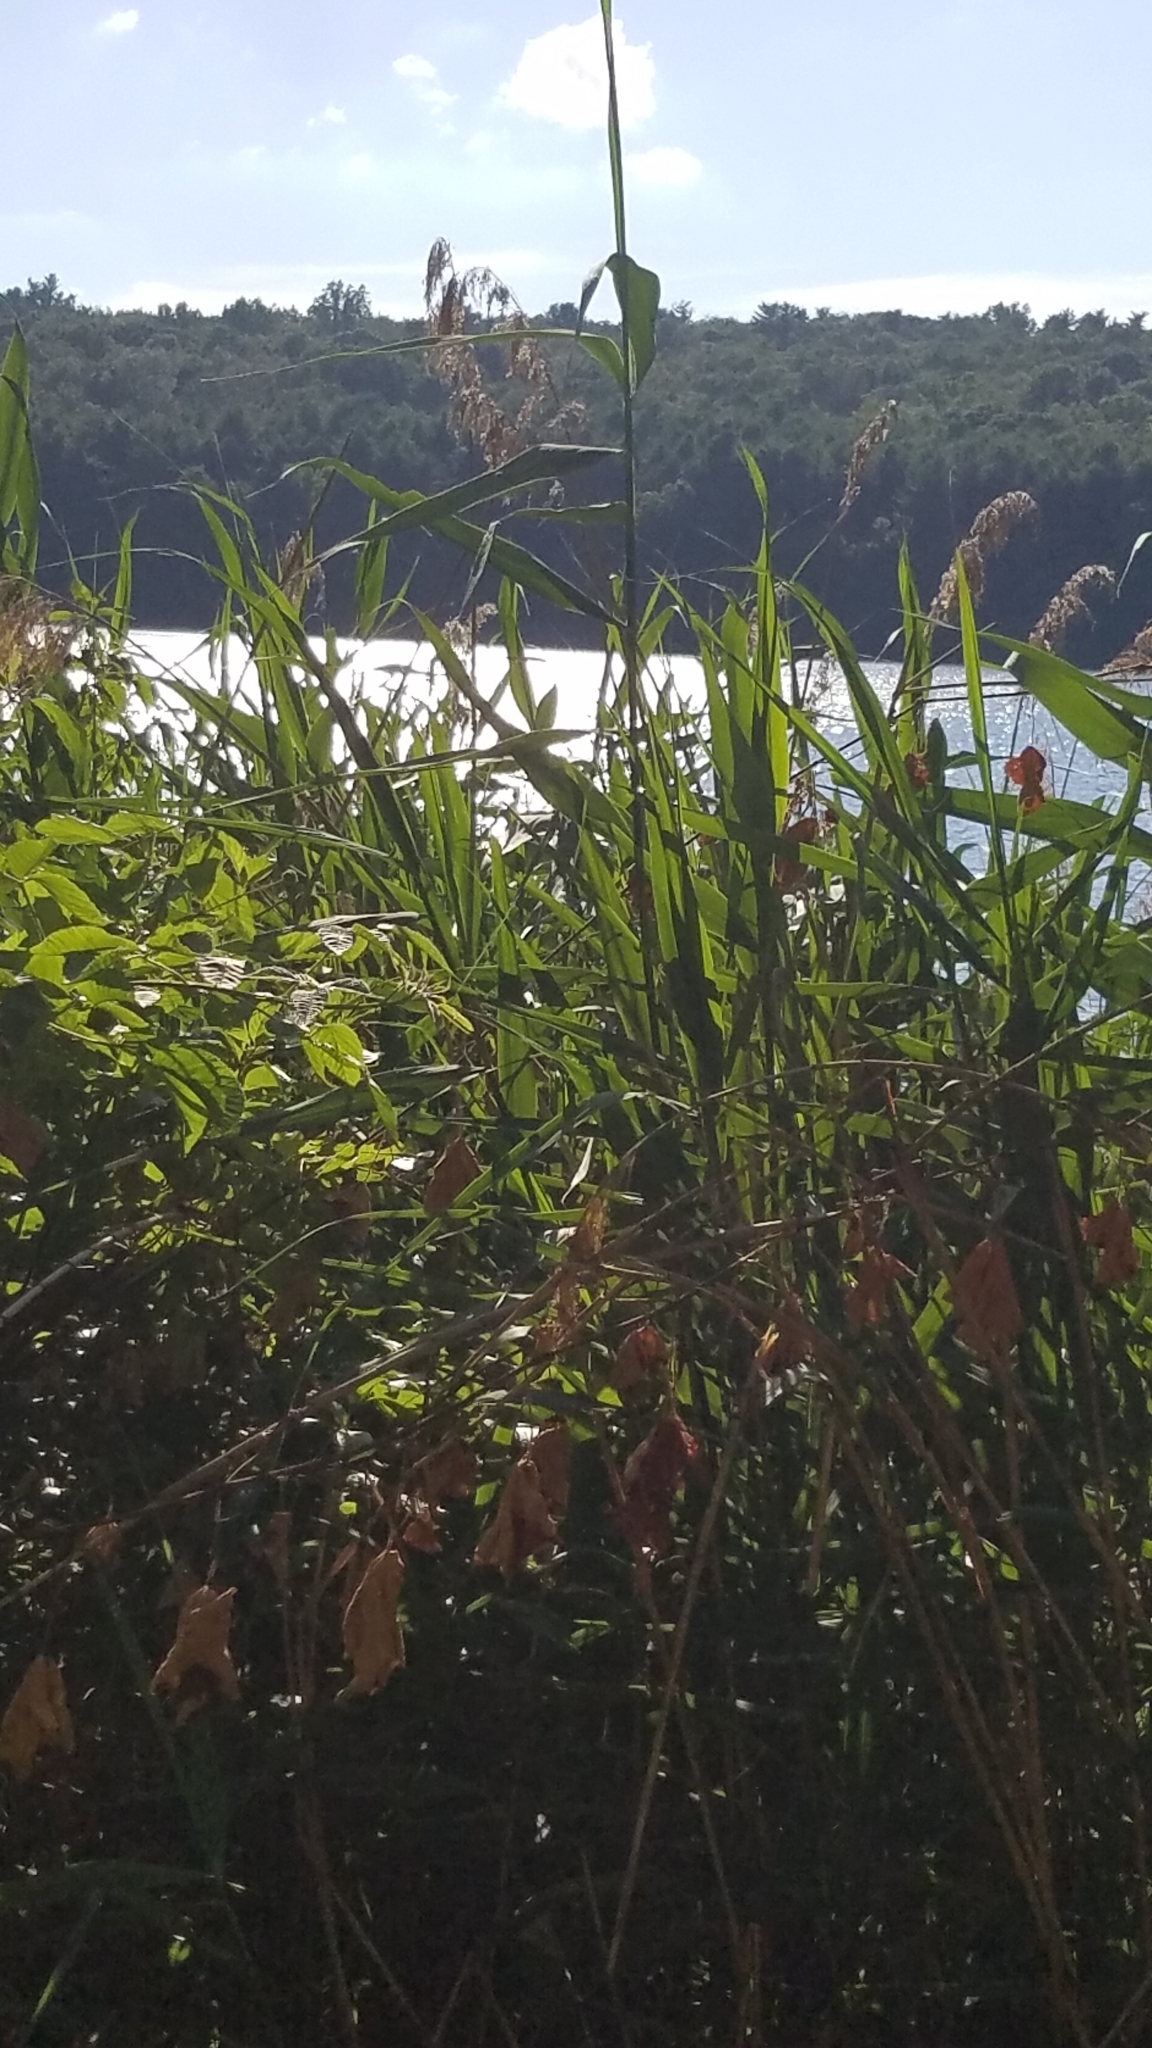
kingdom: Plantae
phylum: Tracheophyta
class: Liliopsida
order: Poales
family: Poaceae
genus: Phragmites
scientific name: Phragmites australis
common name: Common reed
